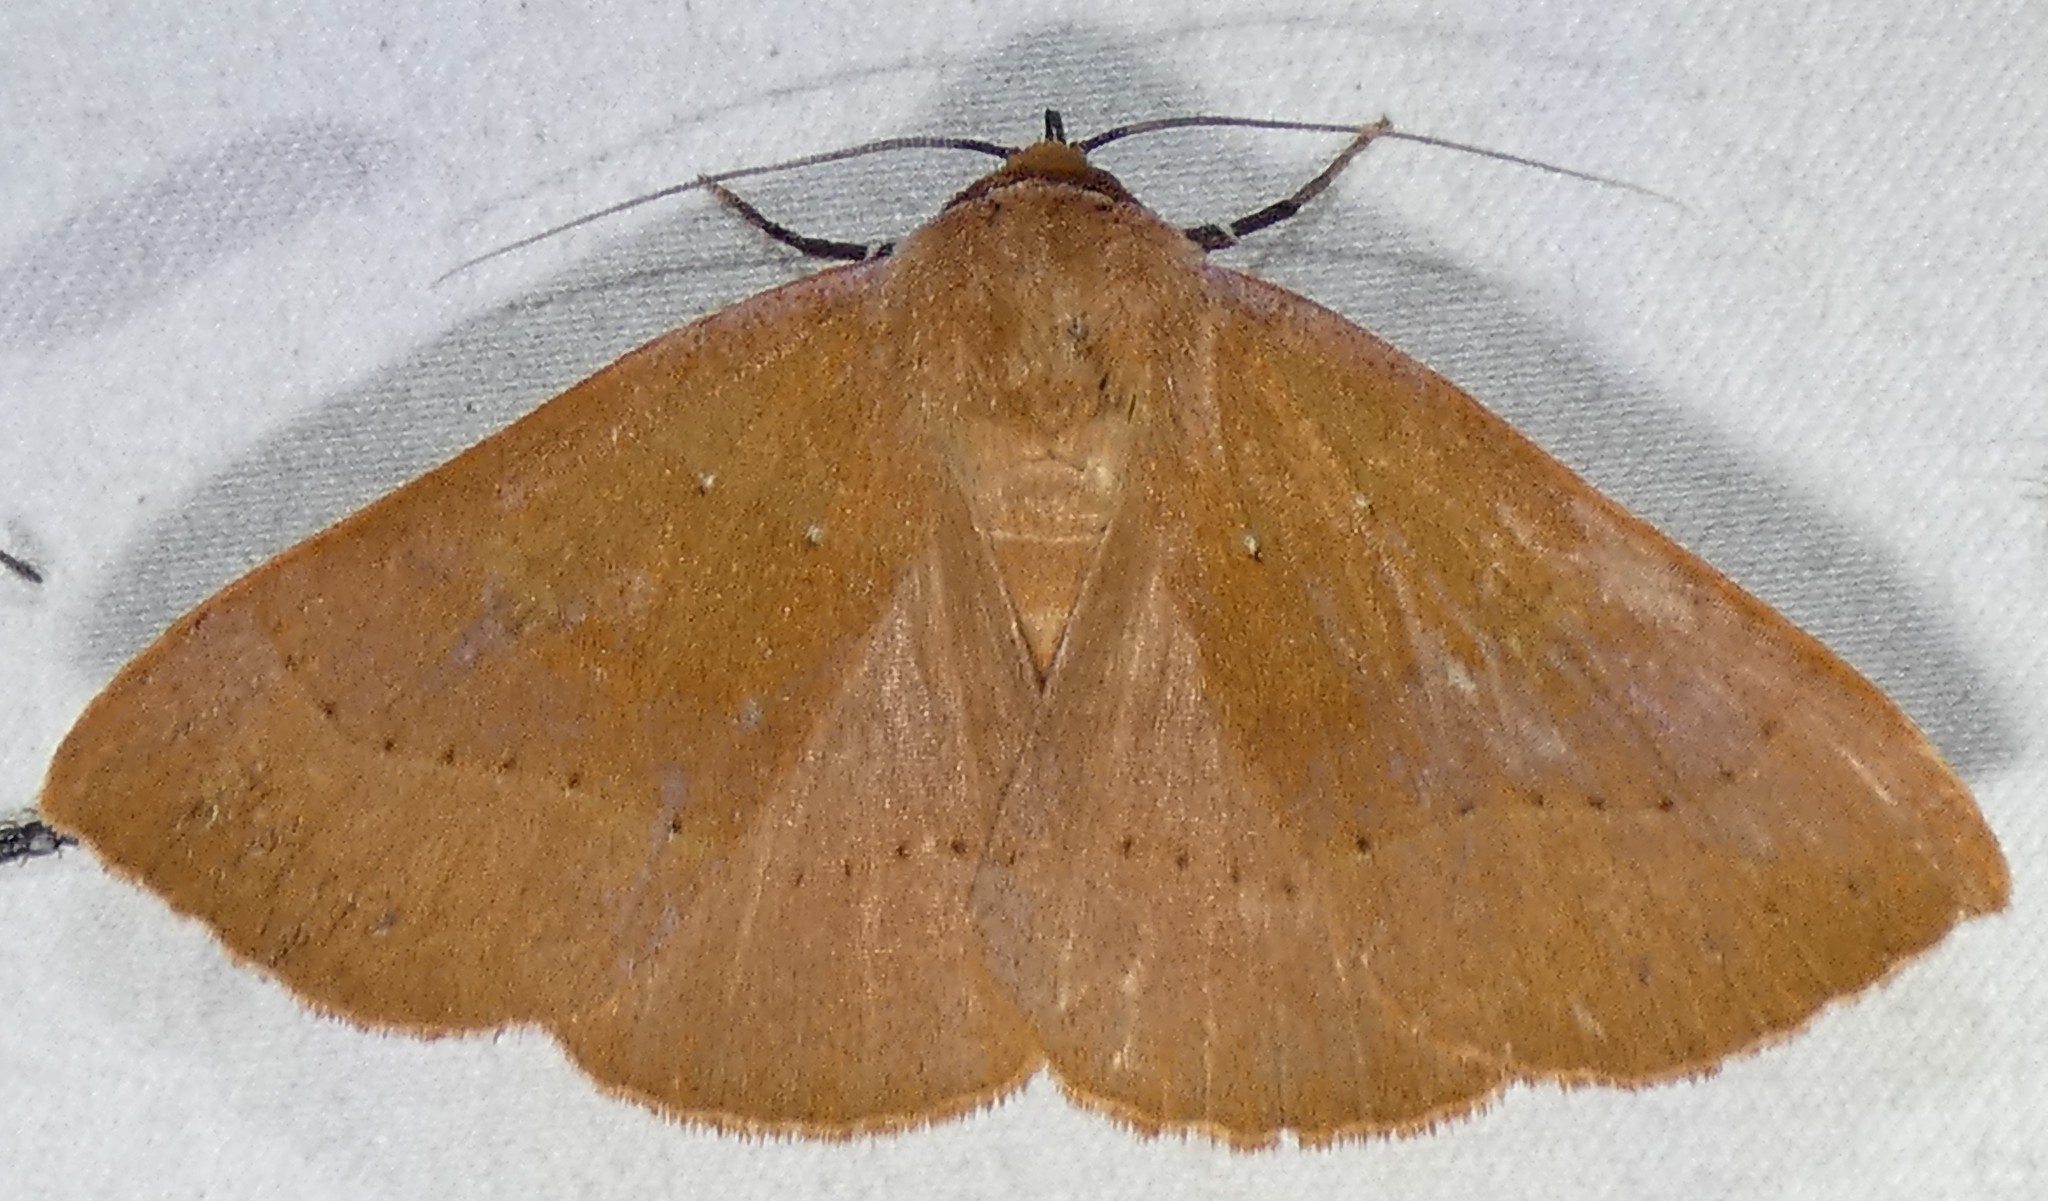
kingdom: Animalia
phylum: Arthropoda
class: Insecta
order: Lepidoptera
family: Erebidae
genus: Panopoda
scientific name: Panopoda repanda
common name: Orange panopoda
